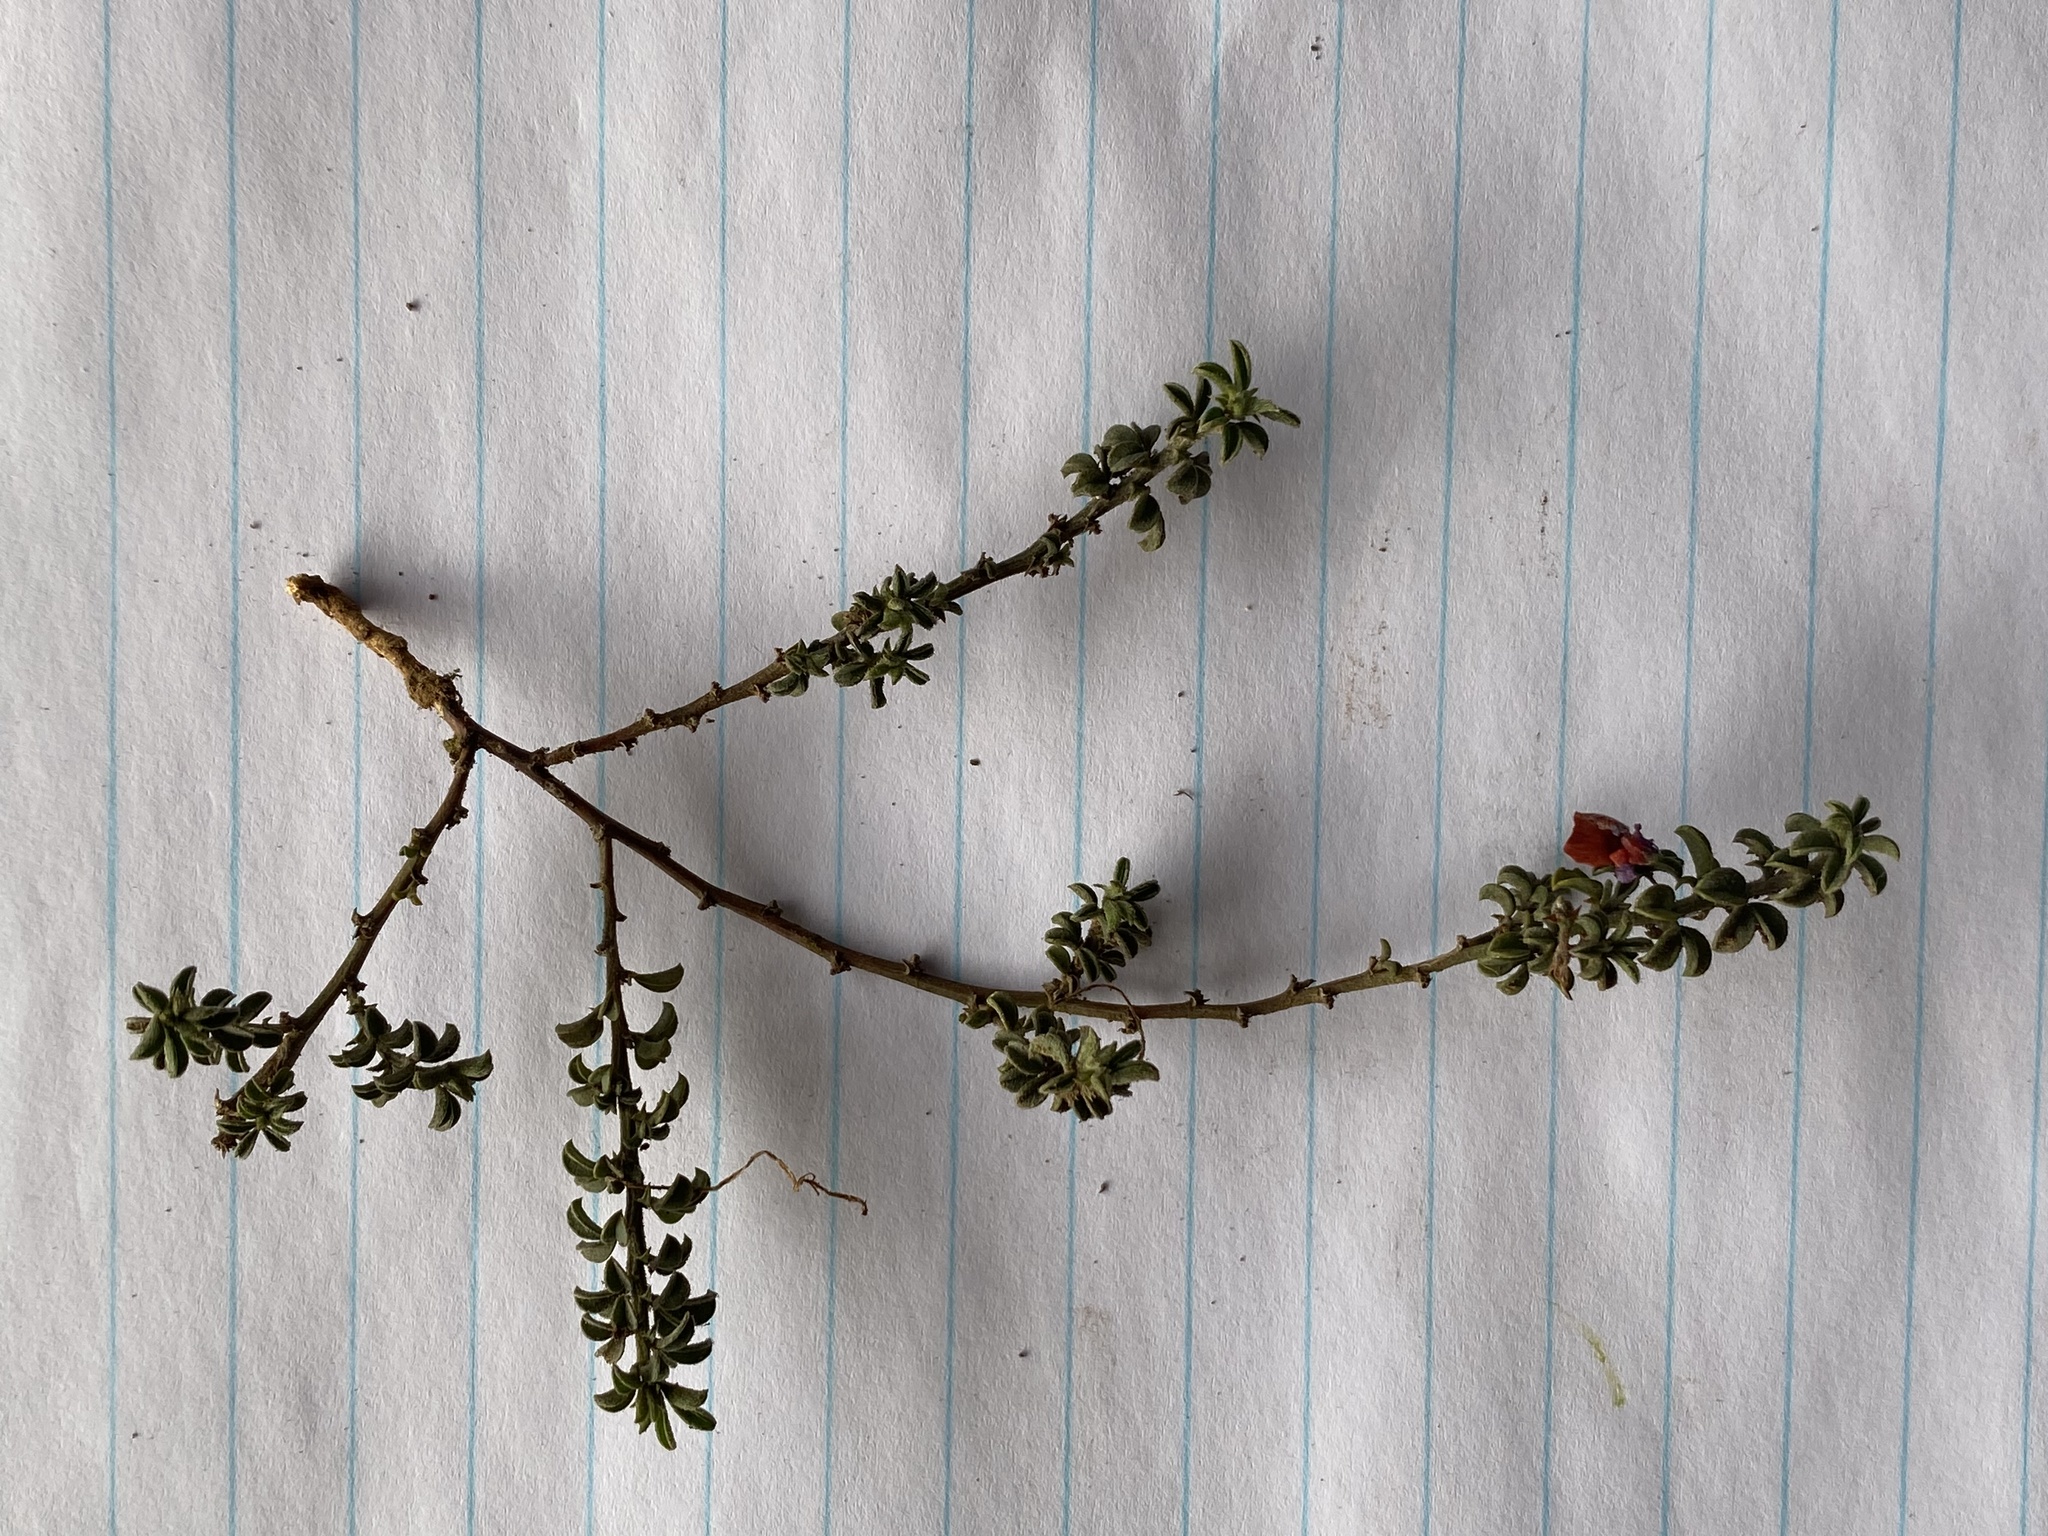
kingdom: Plantae
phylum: Tracheophyta
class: Magnoliopsida
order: Fabales
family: Fabaceae
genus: Indigofera
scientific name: Indigofera priorii
